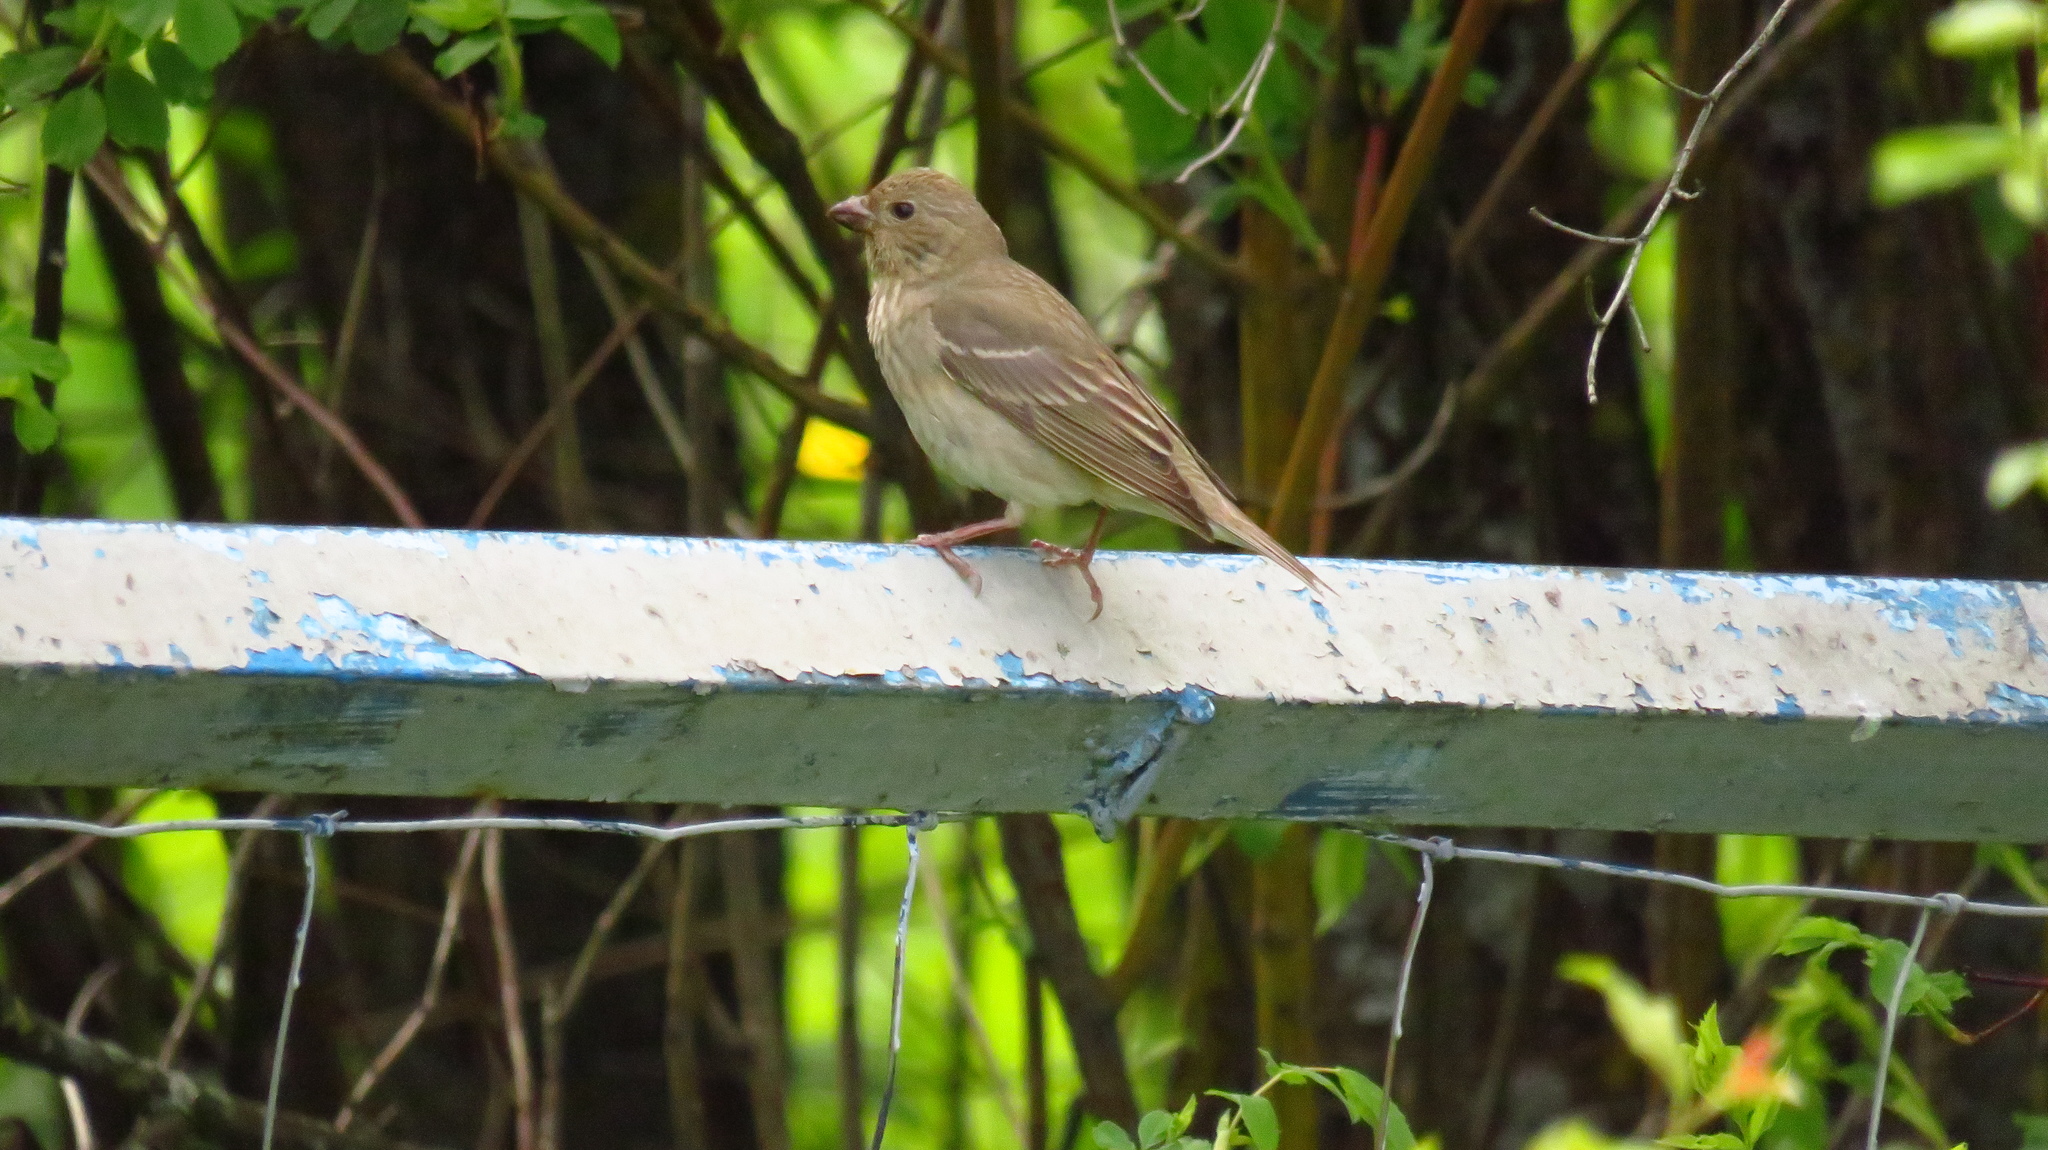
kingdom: Animalia
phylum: Chordata
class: Aves
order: Passeriformes
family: Fringillidae
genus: Carpodacus
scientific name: Carpodacus erythrinus
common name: Common rosefinch
